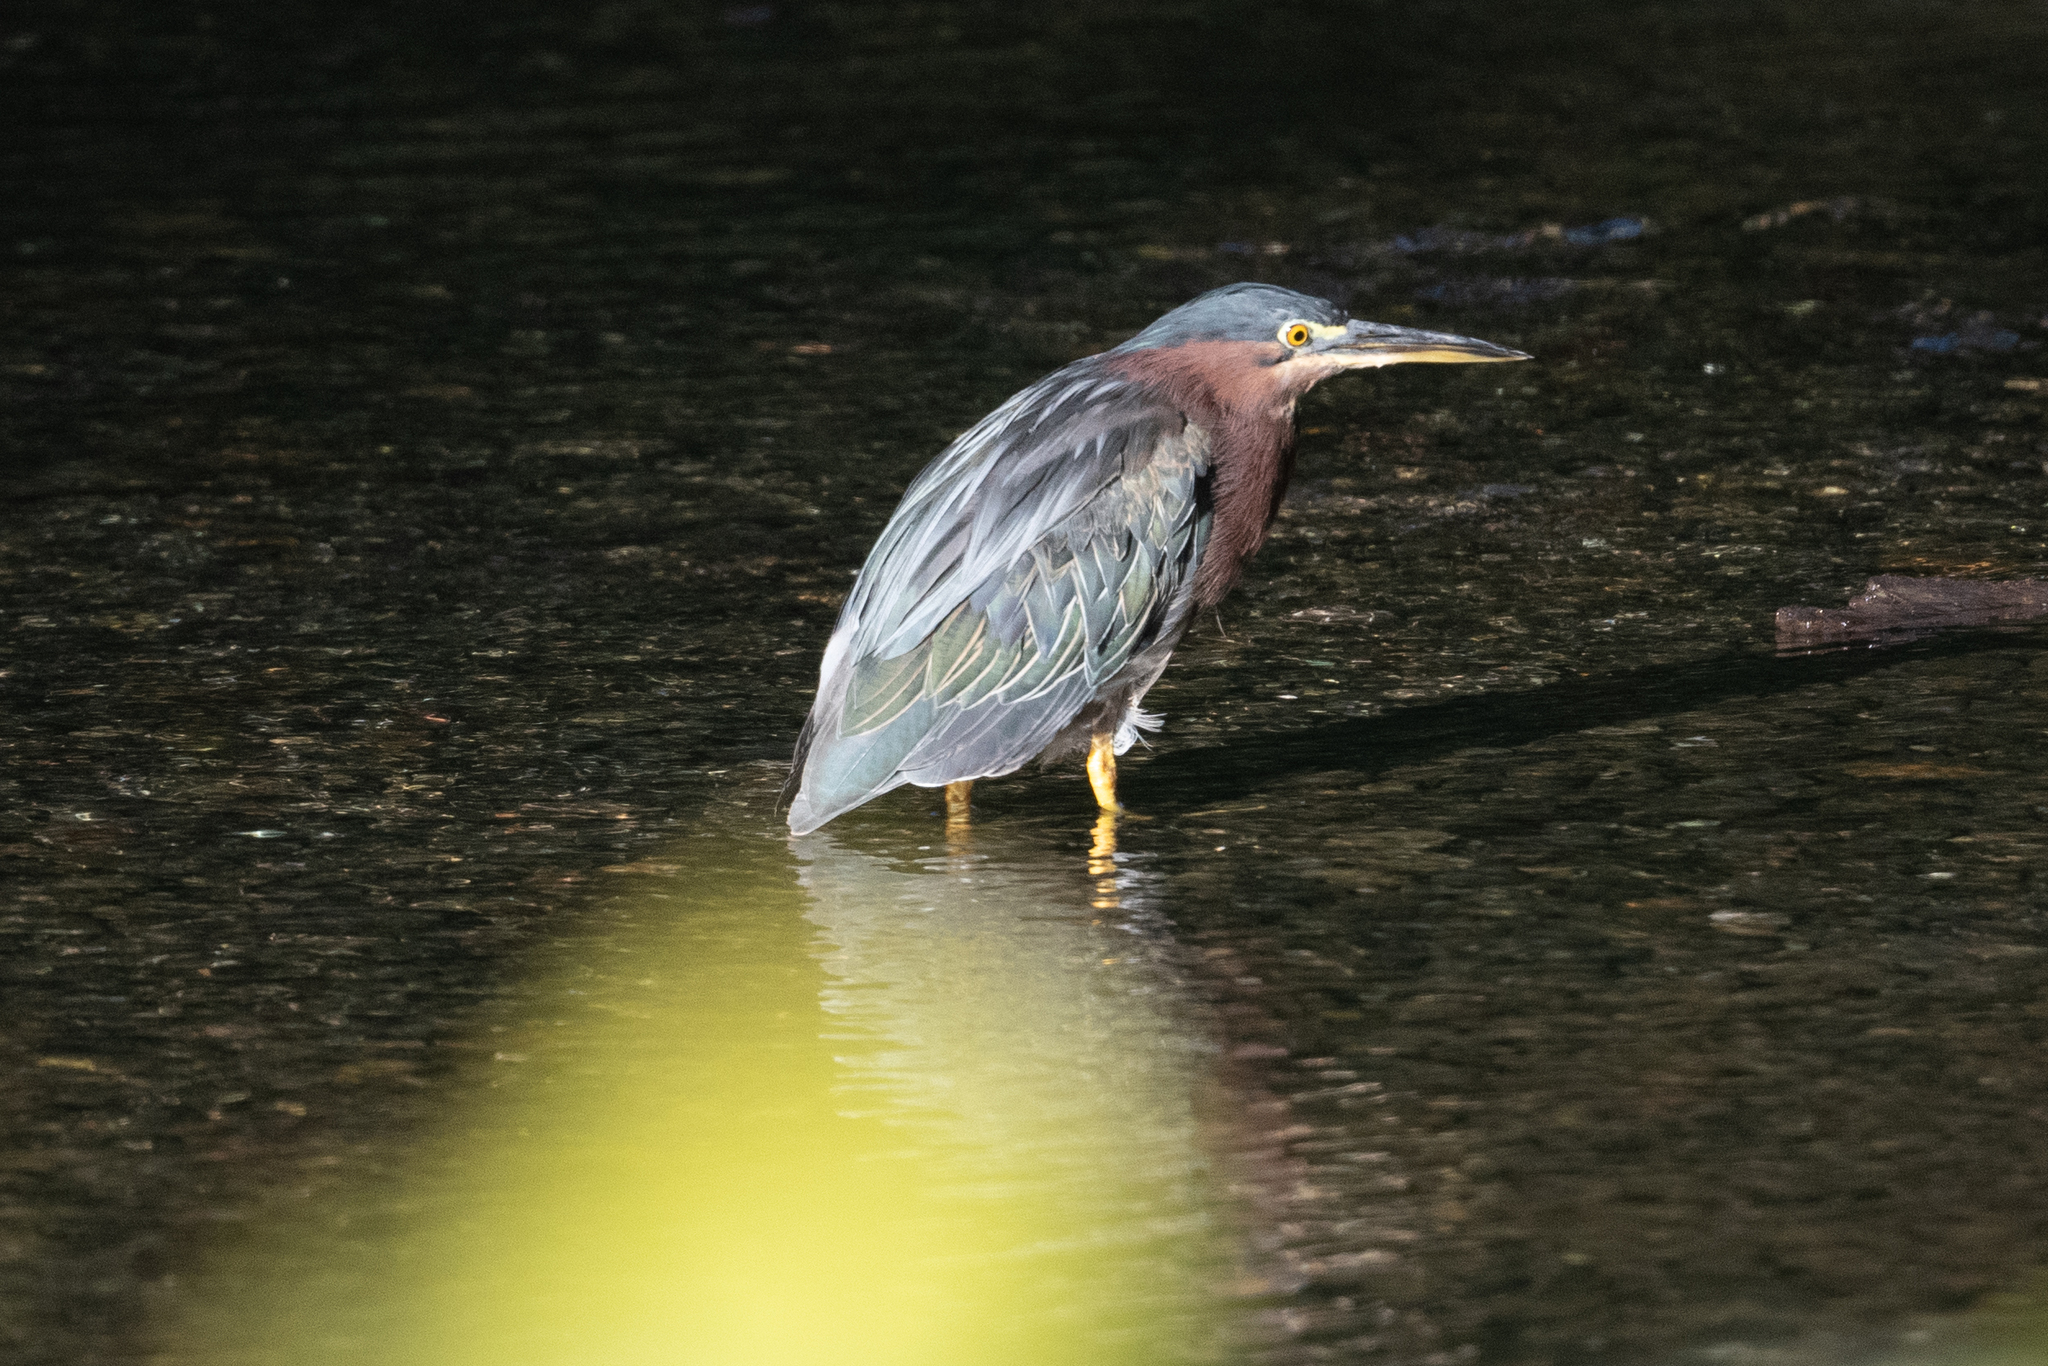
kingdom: Animalia
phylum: Chordata
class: Aves
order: Pelecaniformes
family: Ardeidae
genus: Butorides
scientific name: Butorides virescens
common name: Green heron
